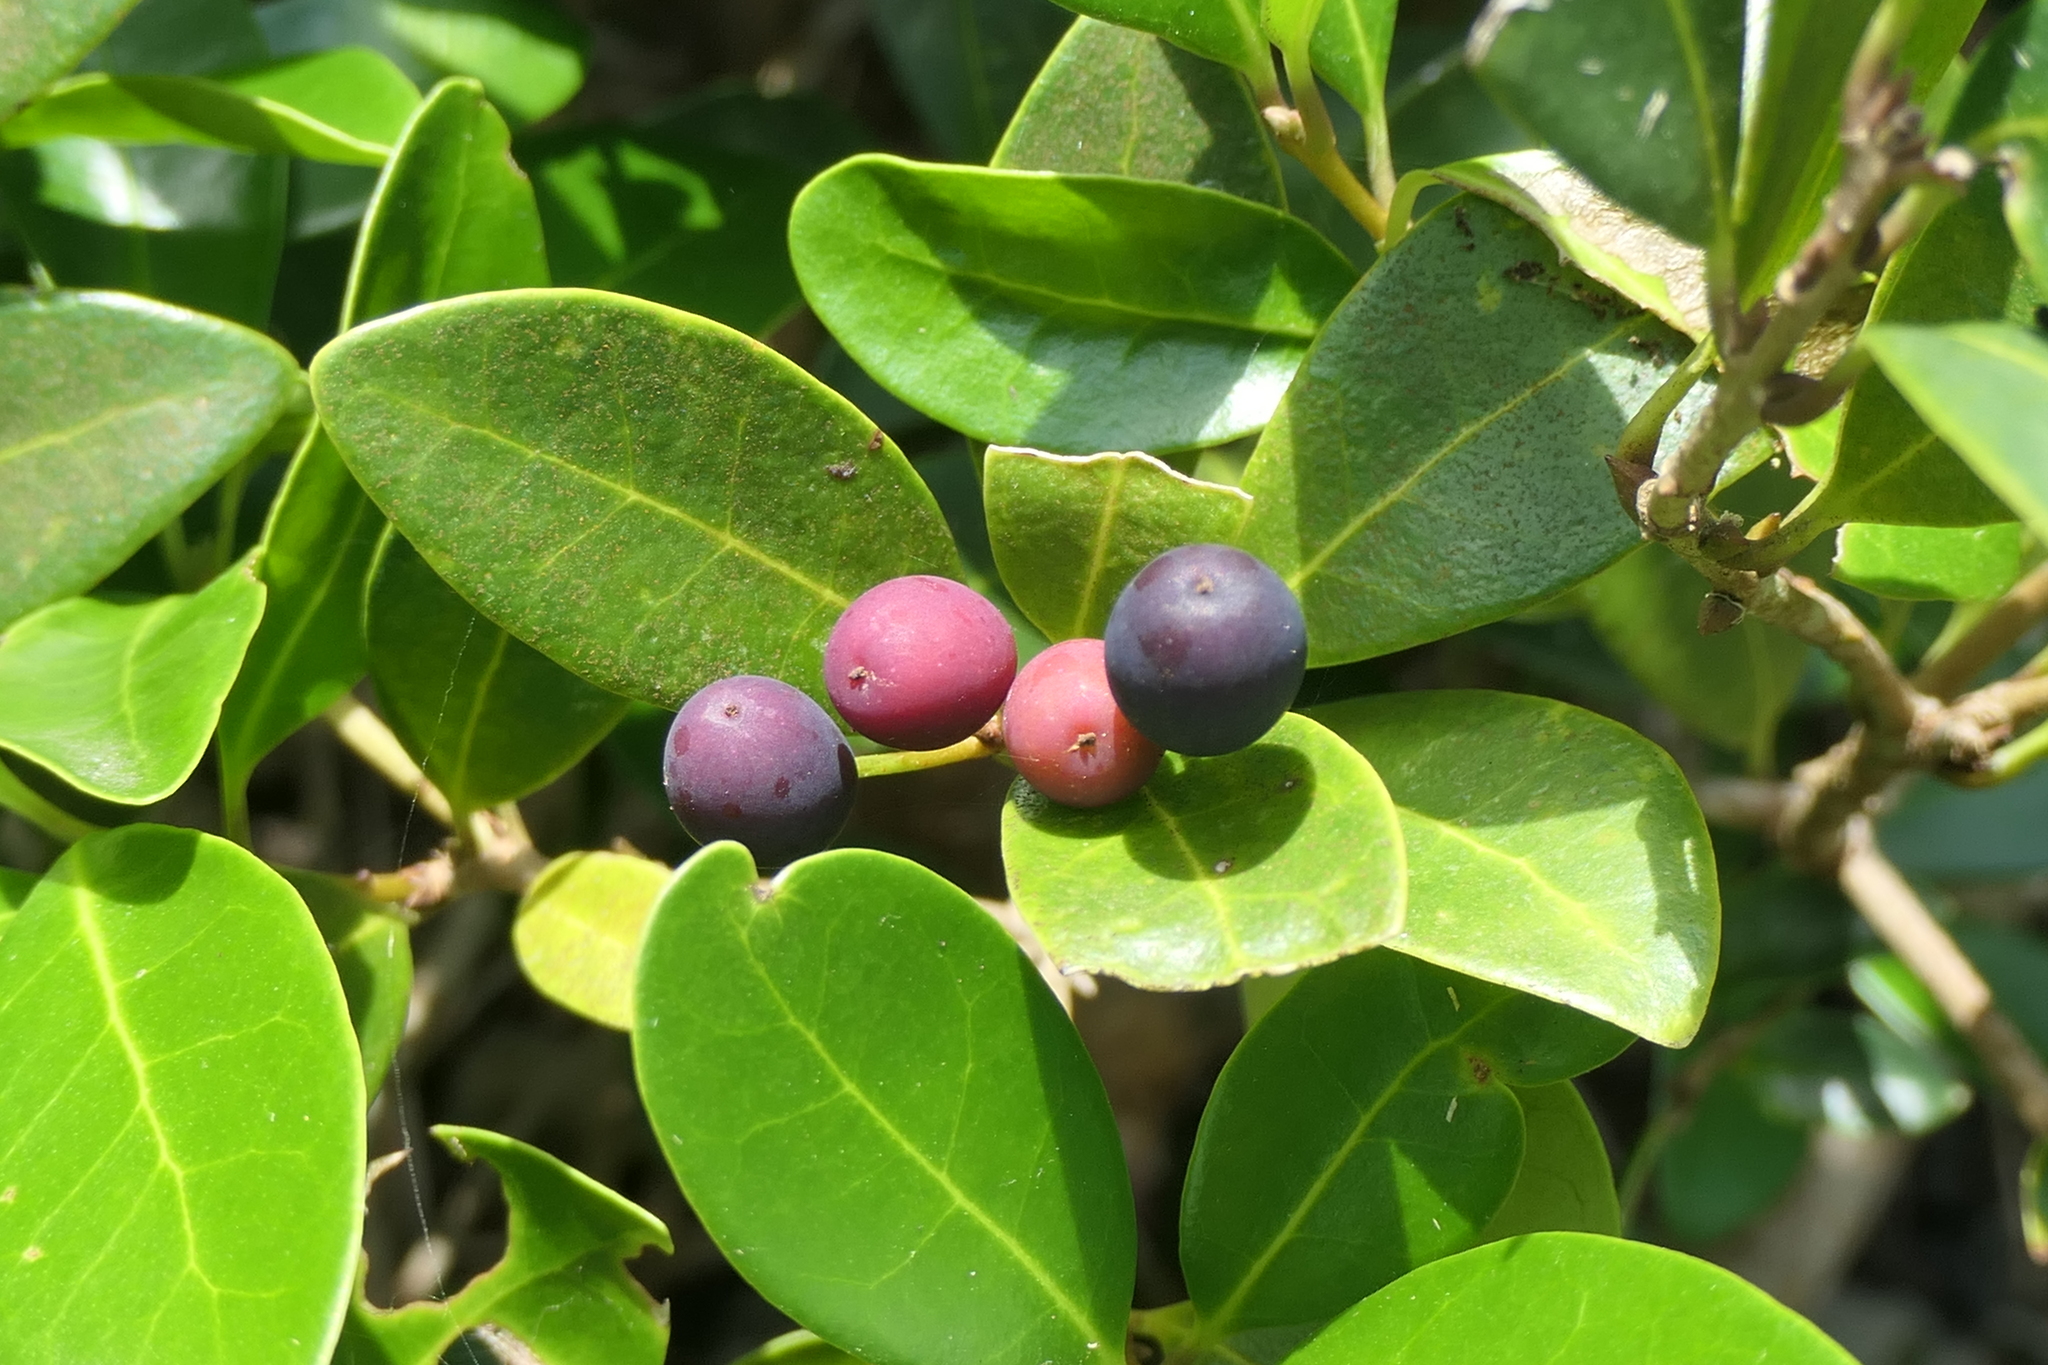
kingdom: Plantae
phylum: Tracheophyta
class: Magnoliopsida
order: Lamiales
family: Oleaceae
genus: Picconia
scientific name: Picconia azorica
